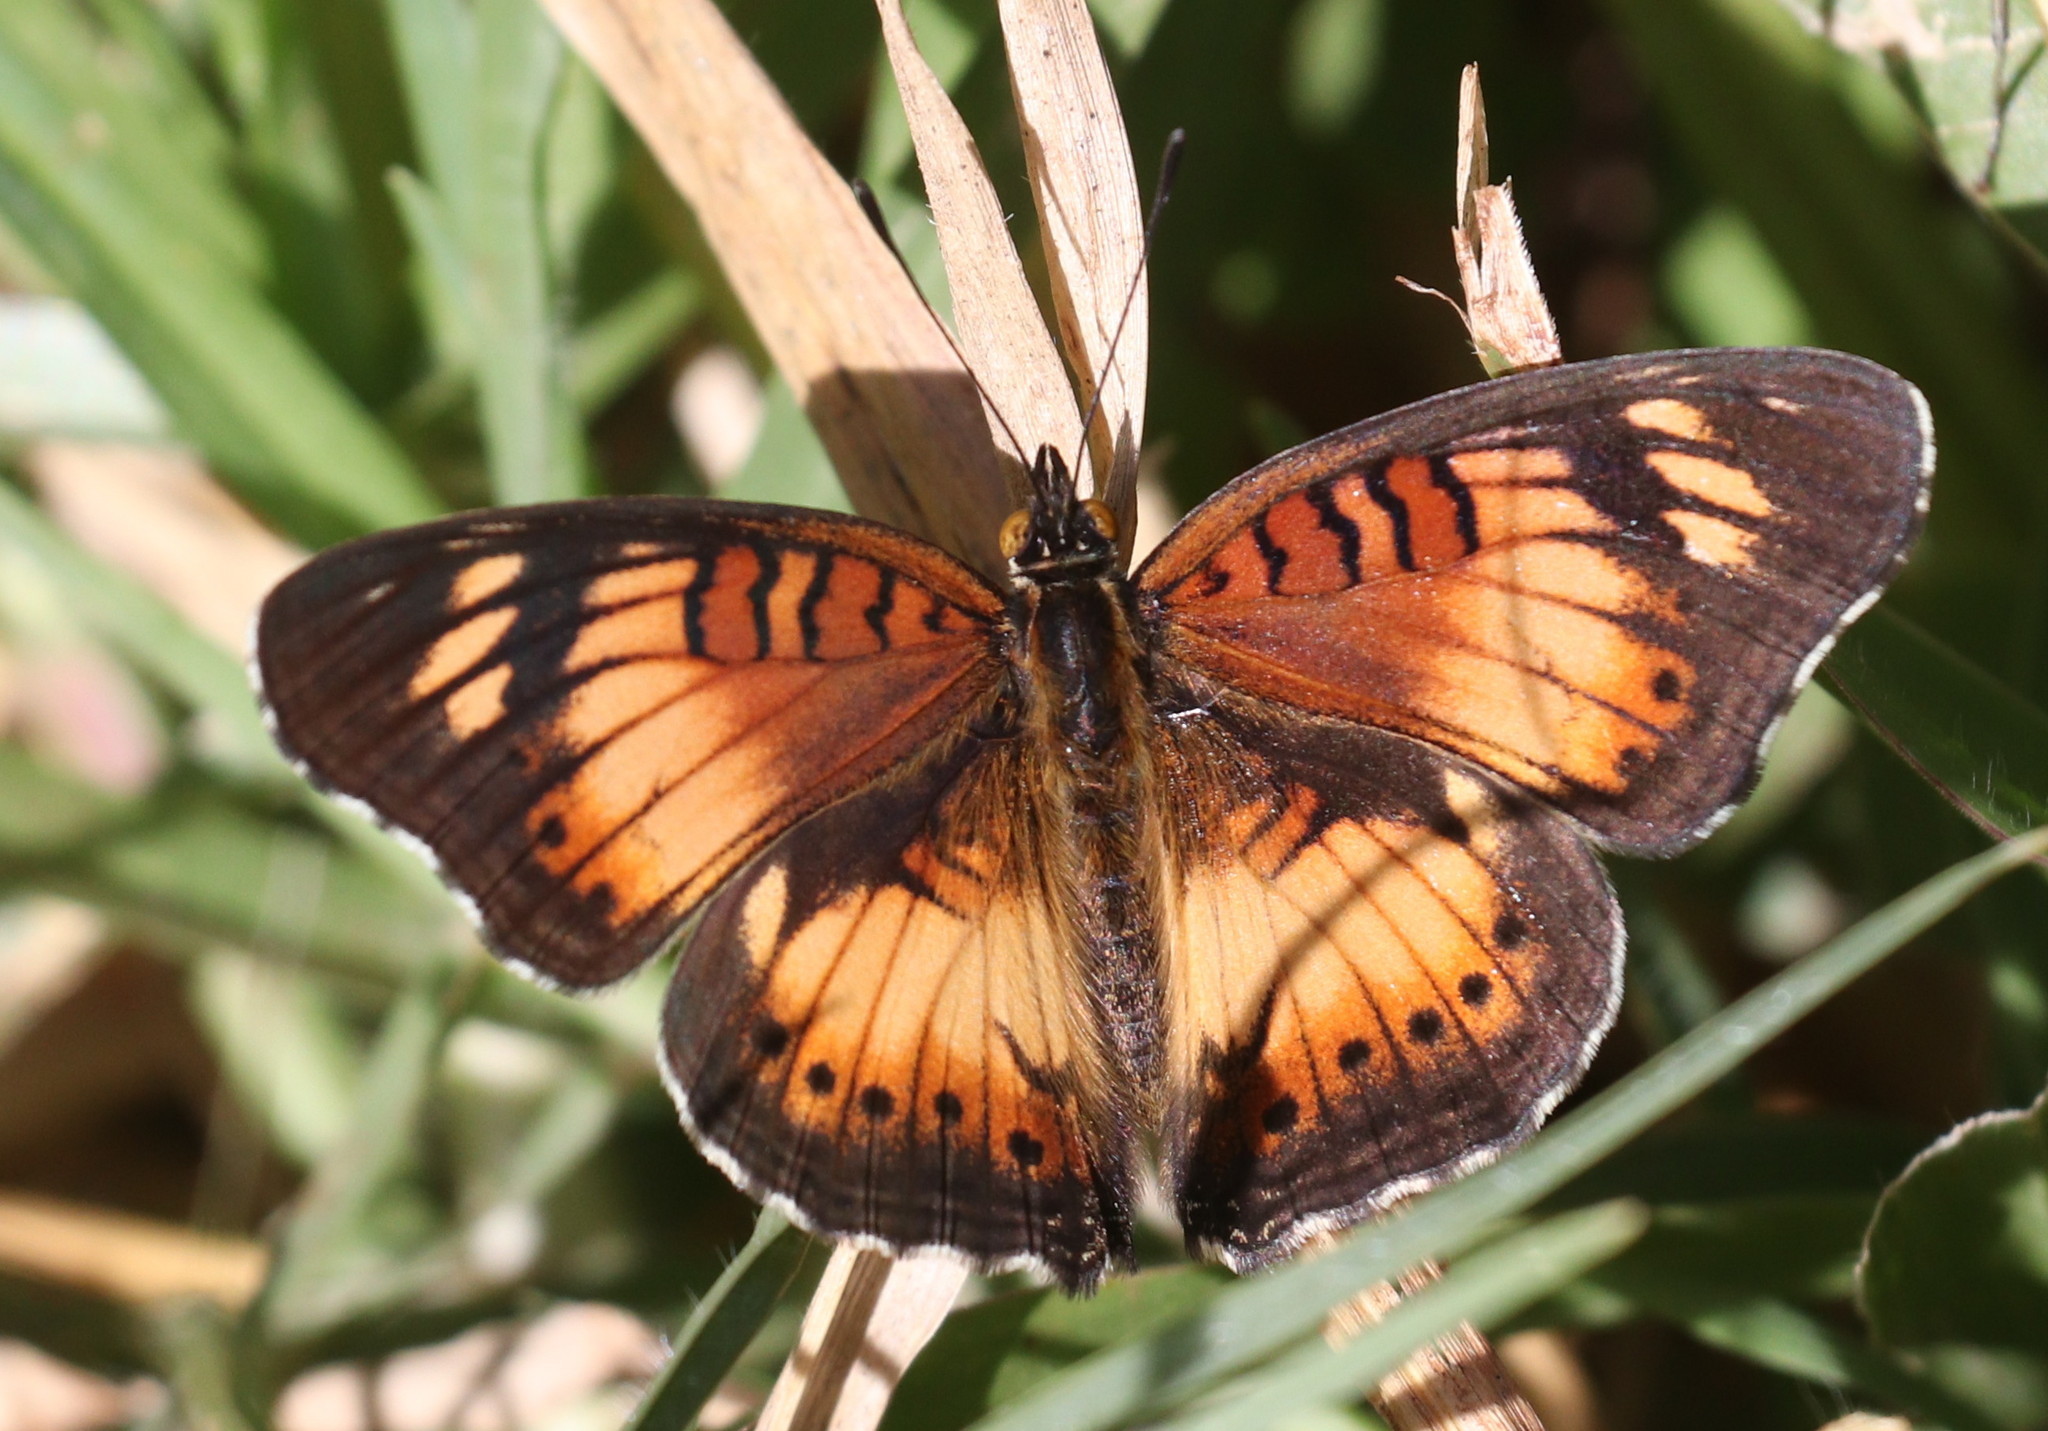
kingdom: Animalia
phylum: Arthropoda
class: Insecta
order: Lepidoptera
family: Nymphalidae
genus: Junonia
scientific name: Junonia sophia
